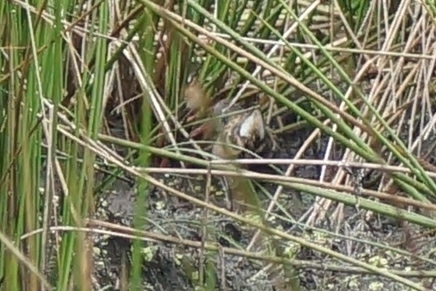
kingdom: Animalia
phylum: Chordata
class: Aves
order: Gruiformes
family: Rallidae
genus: Rallus
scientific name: Rallus aquaticus
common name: Water rail
